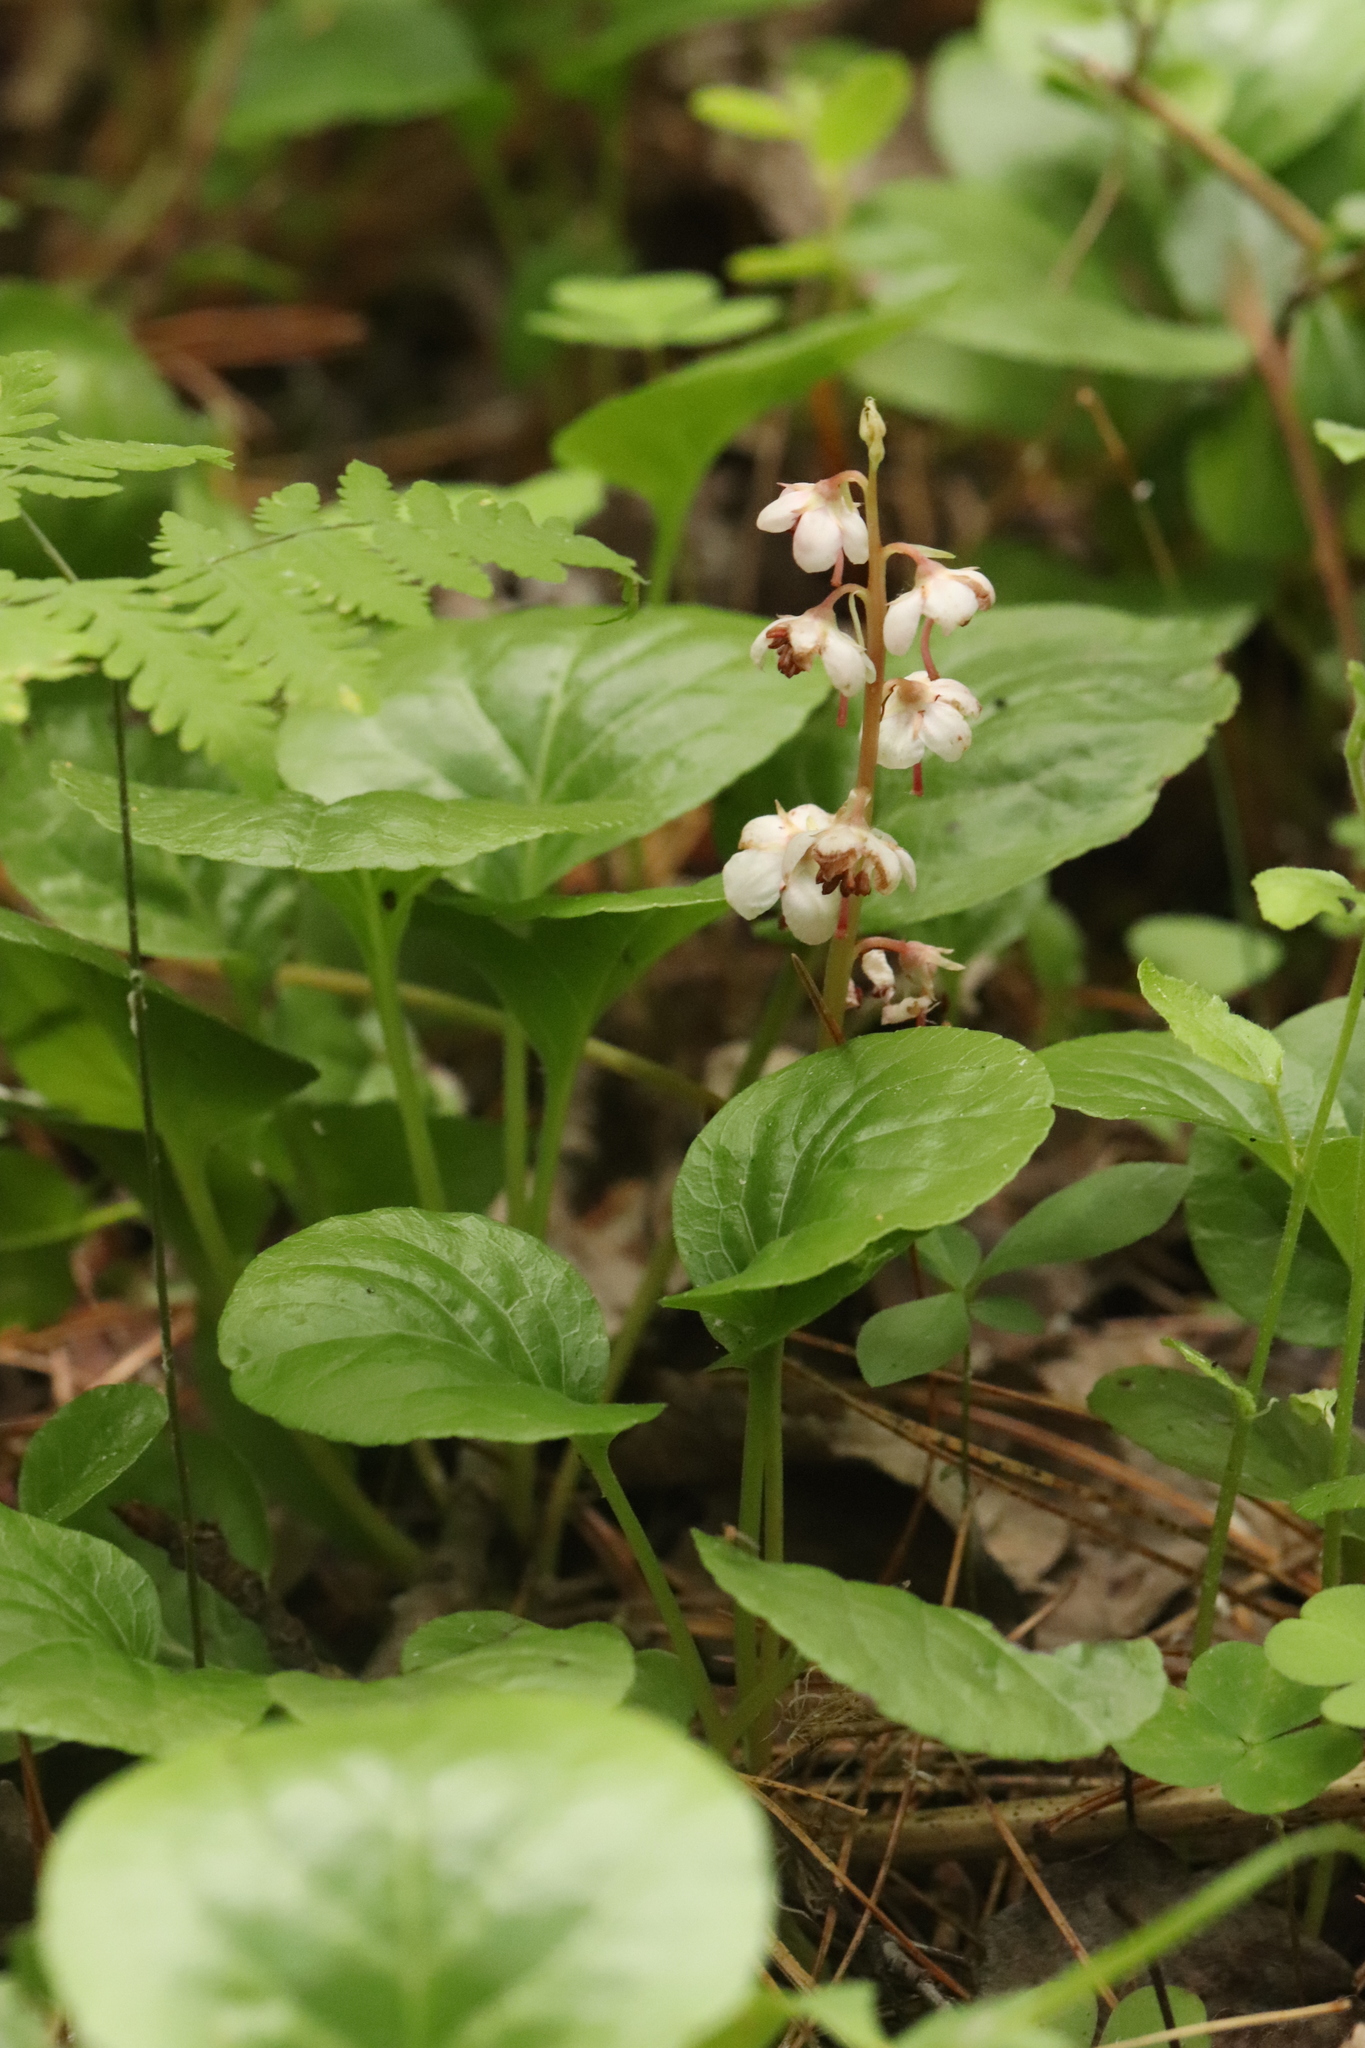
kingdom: Plantae
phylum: Tracheophyta
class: Magnoliopsida
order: Ericales
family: Ericaceae
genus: Pyrola
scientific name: Pyrola rotundifolia
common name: Round-leaved wintergreen
